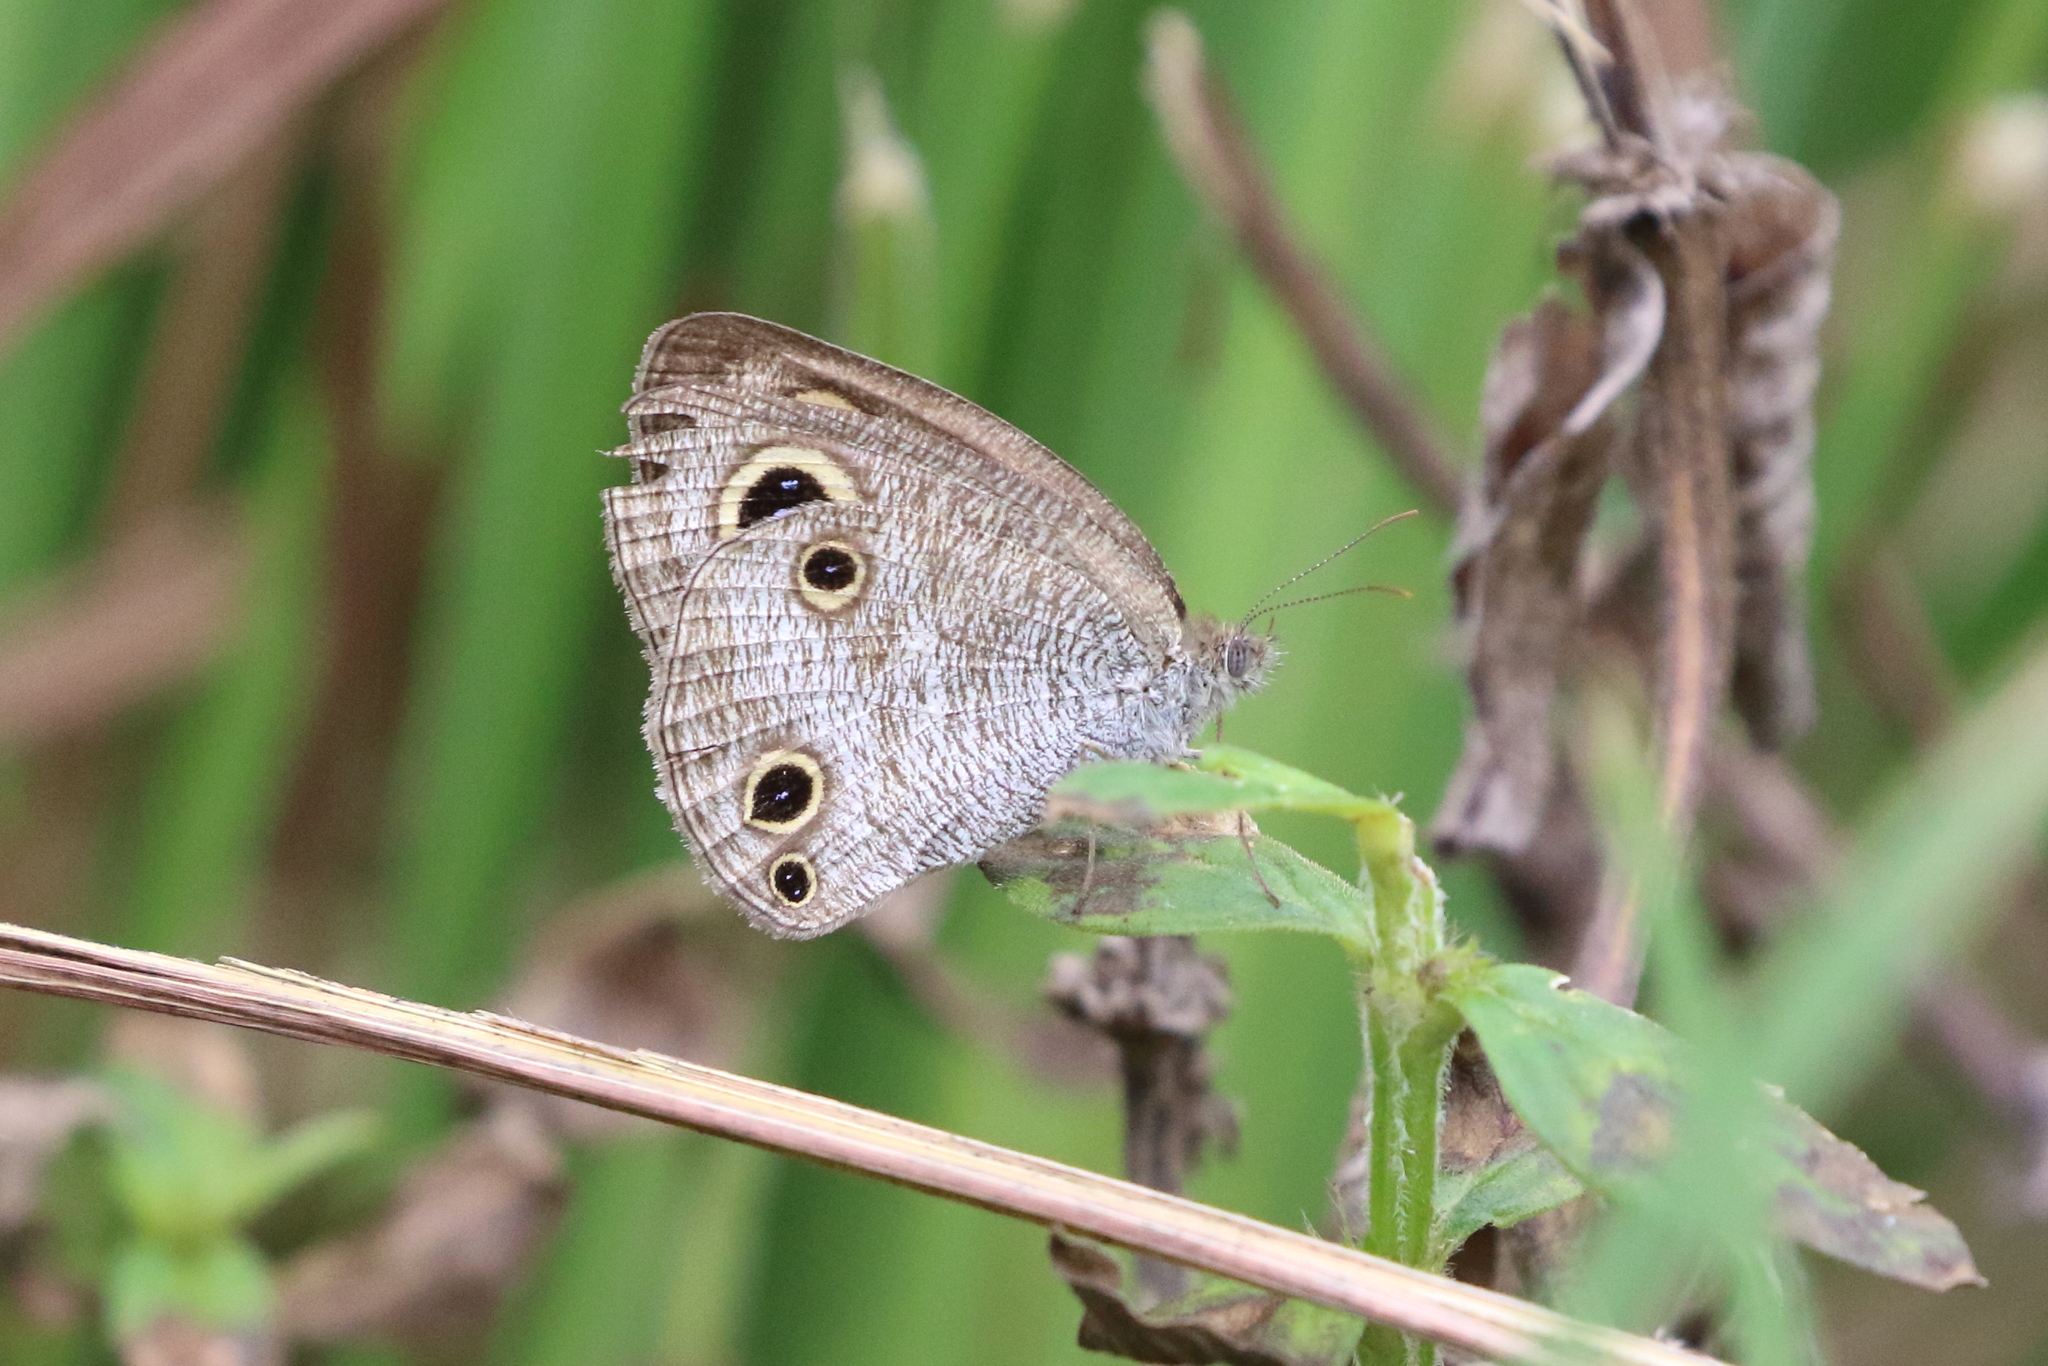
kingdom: Animalia
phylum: Arthropoda
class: Insecta
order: Lepidoptera
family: Nymphalidae
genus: Ypthima
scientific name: Ypthima pandocus
